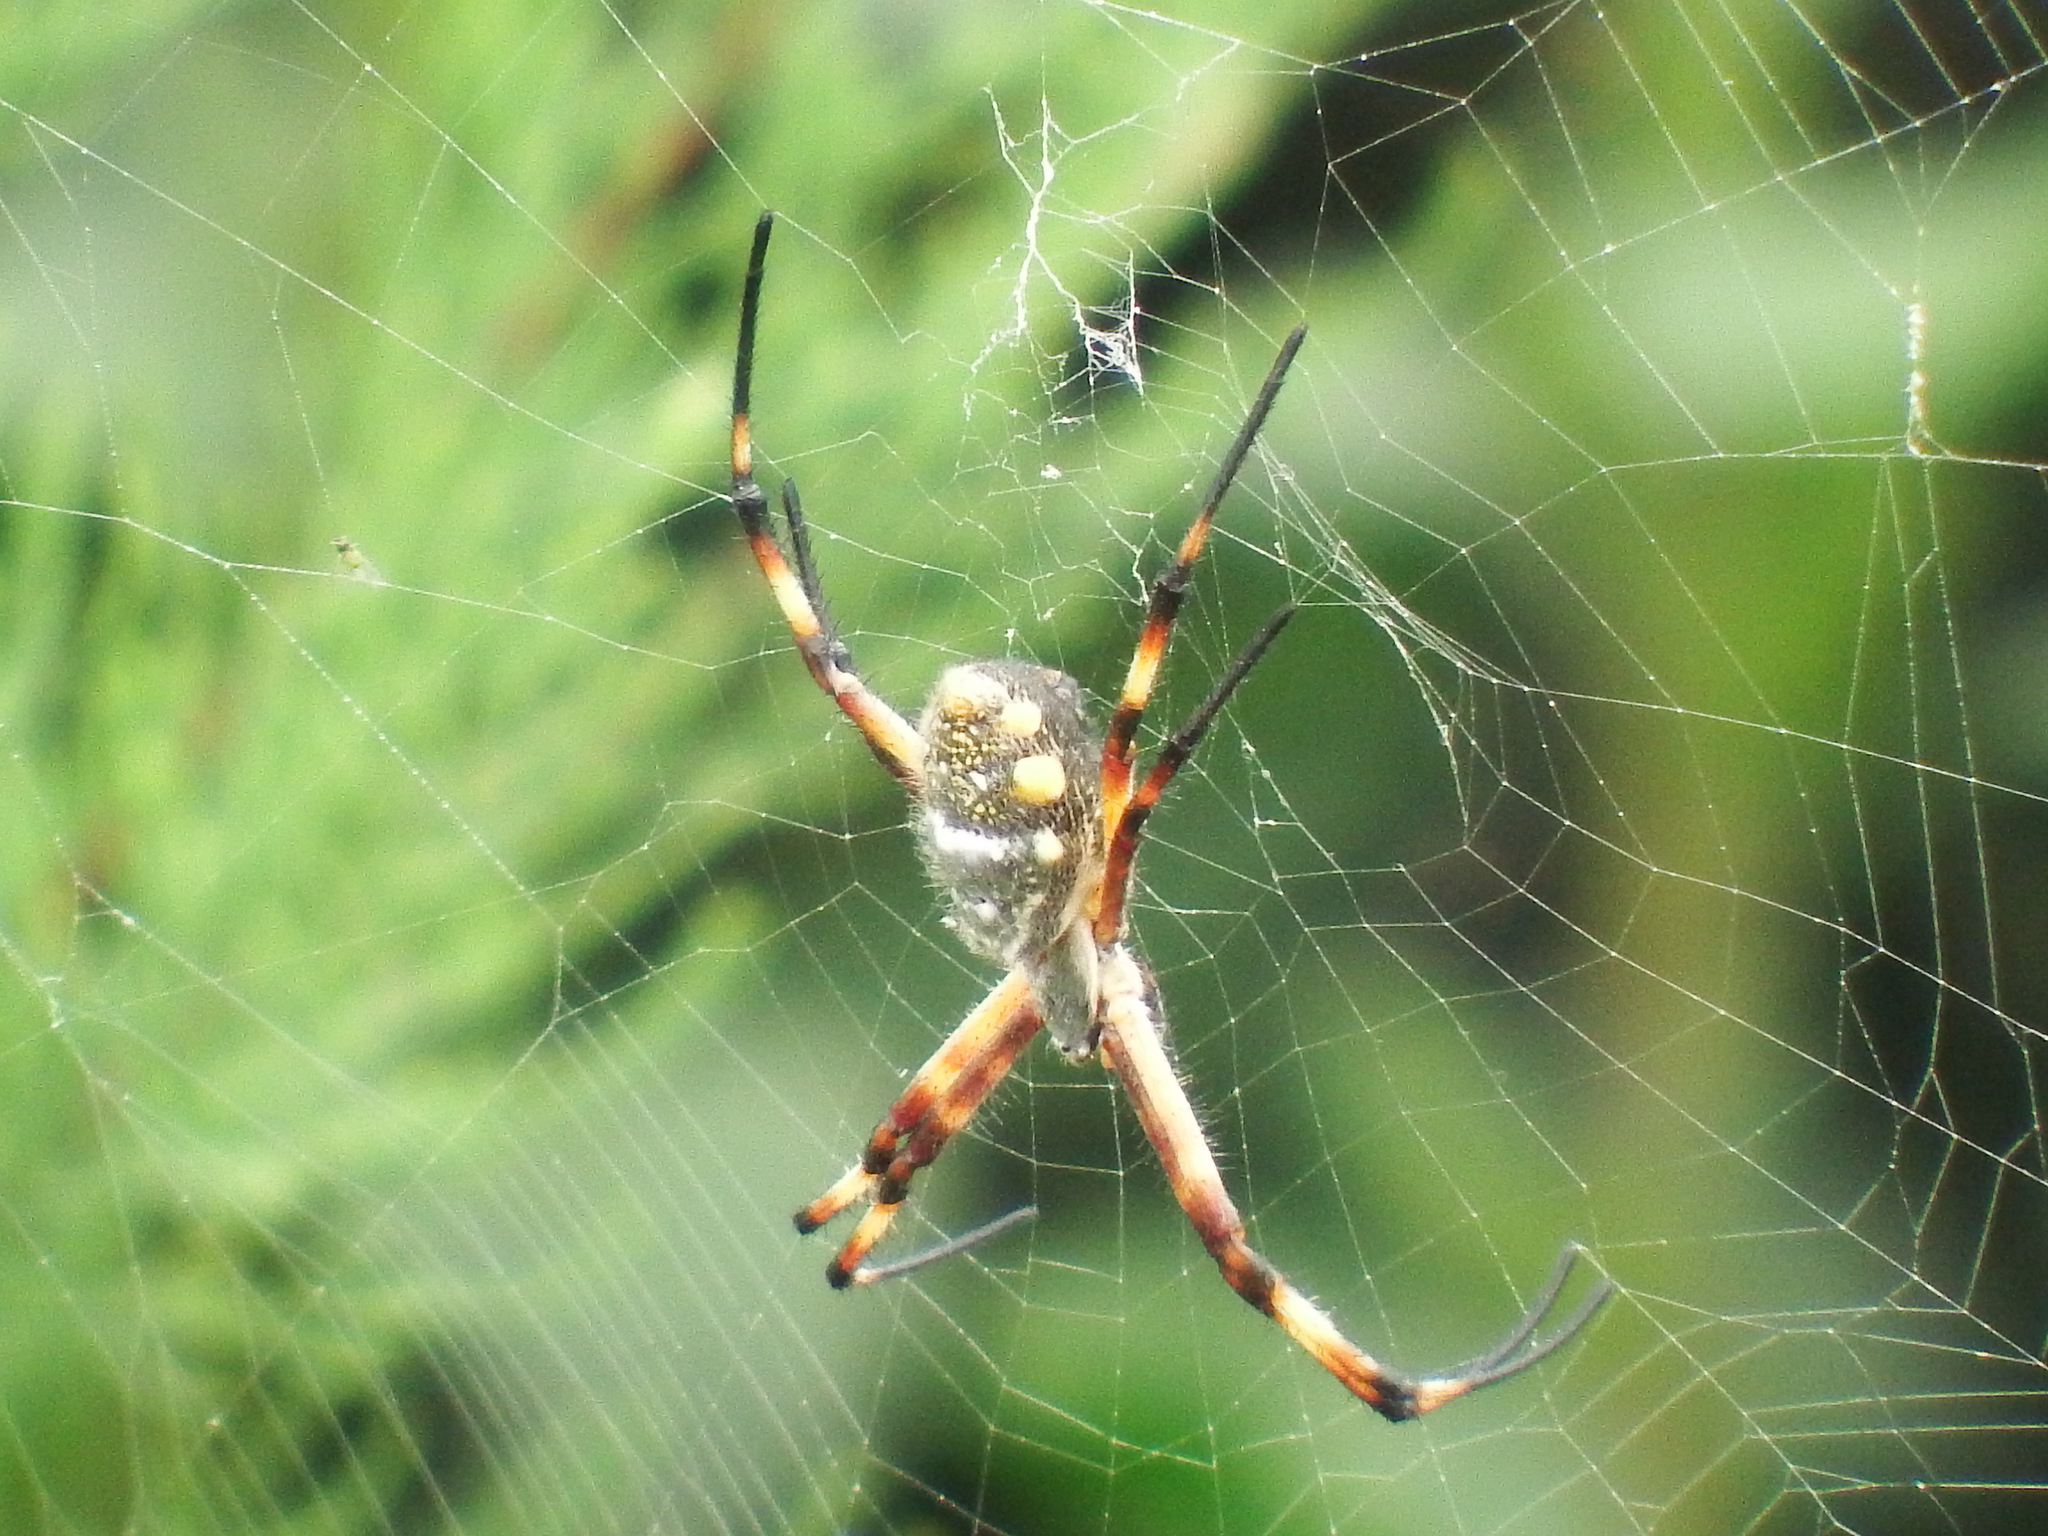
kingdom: Animalia
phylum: Arthropoda
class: Arachnida
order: Araneae
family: Araneidae
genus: Argiope
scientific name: Argiope argentata
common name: Orb weavers
